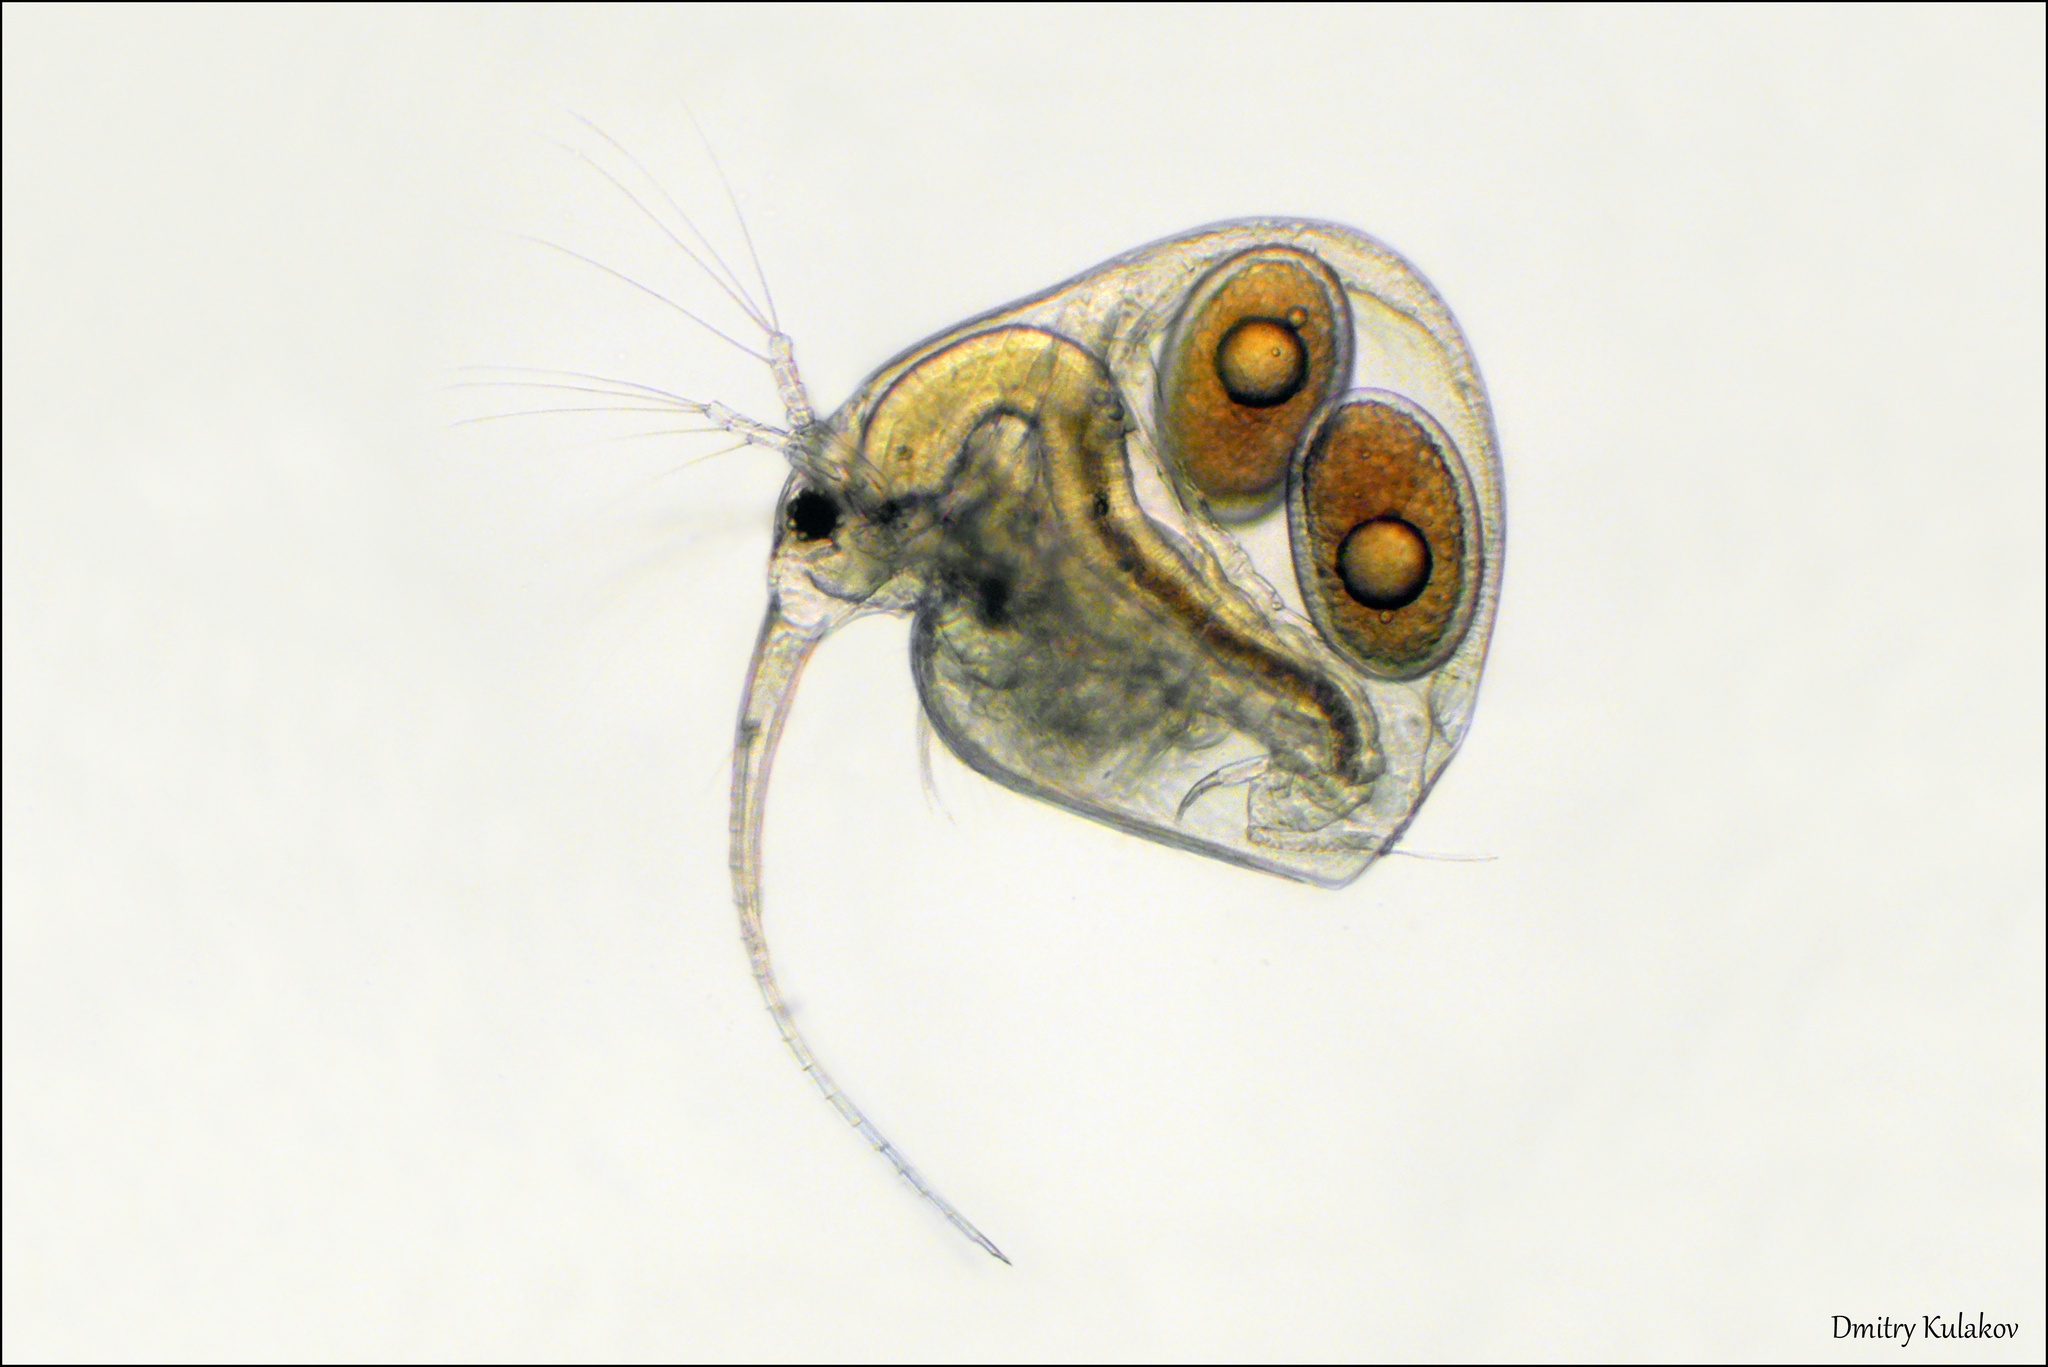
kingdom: Animalia
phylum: Arthropoda
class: Branchiopoda
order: Diplostraca
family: Bosminidae
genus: Bosmina
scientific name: Bosmina coregoni
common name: Water flea
